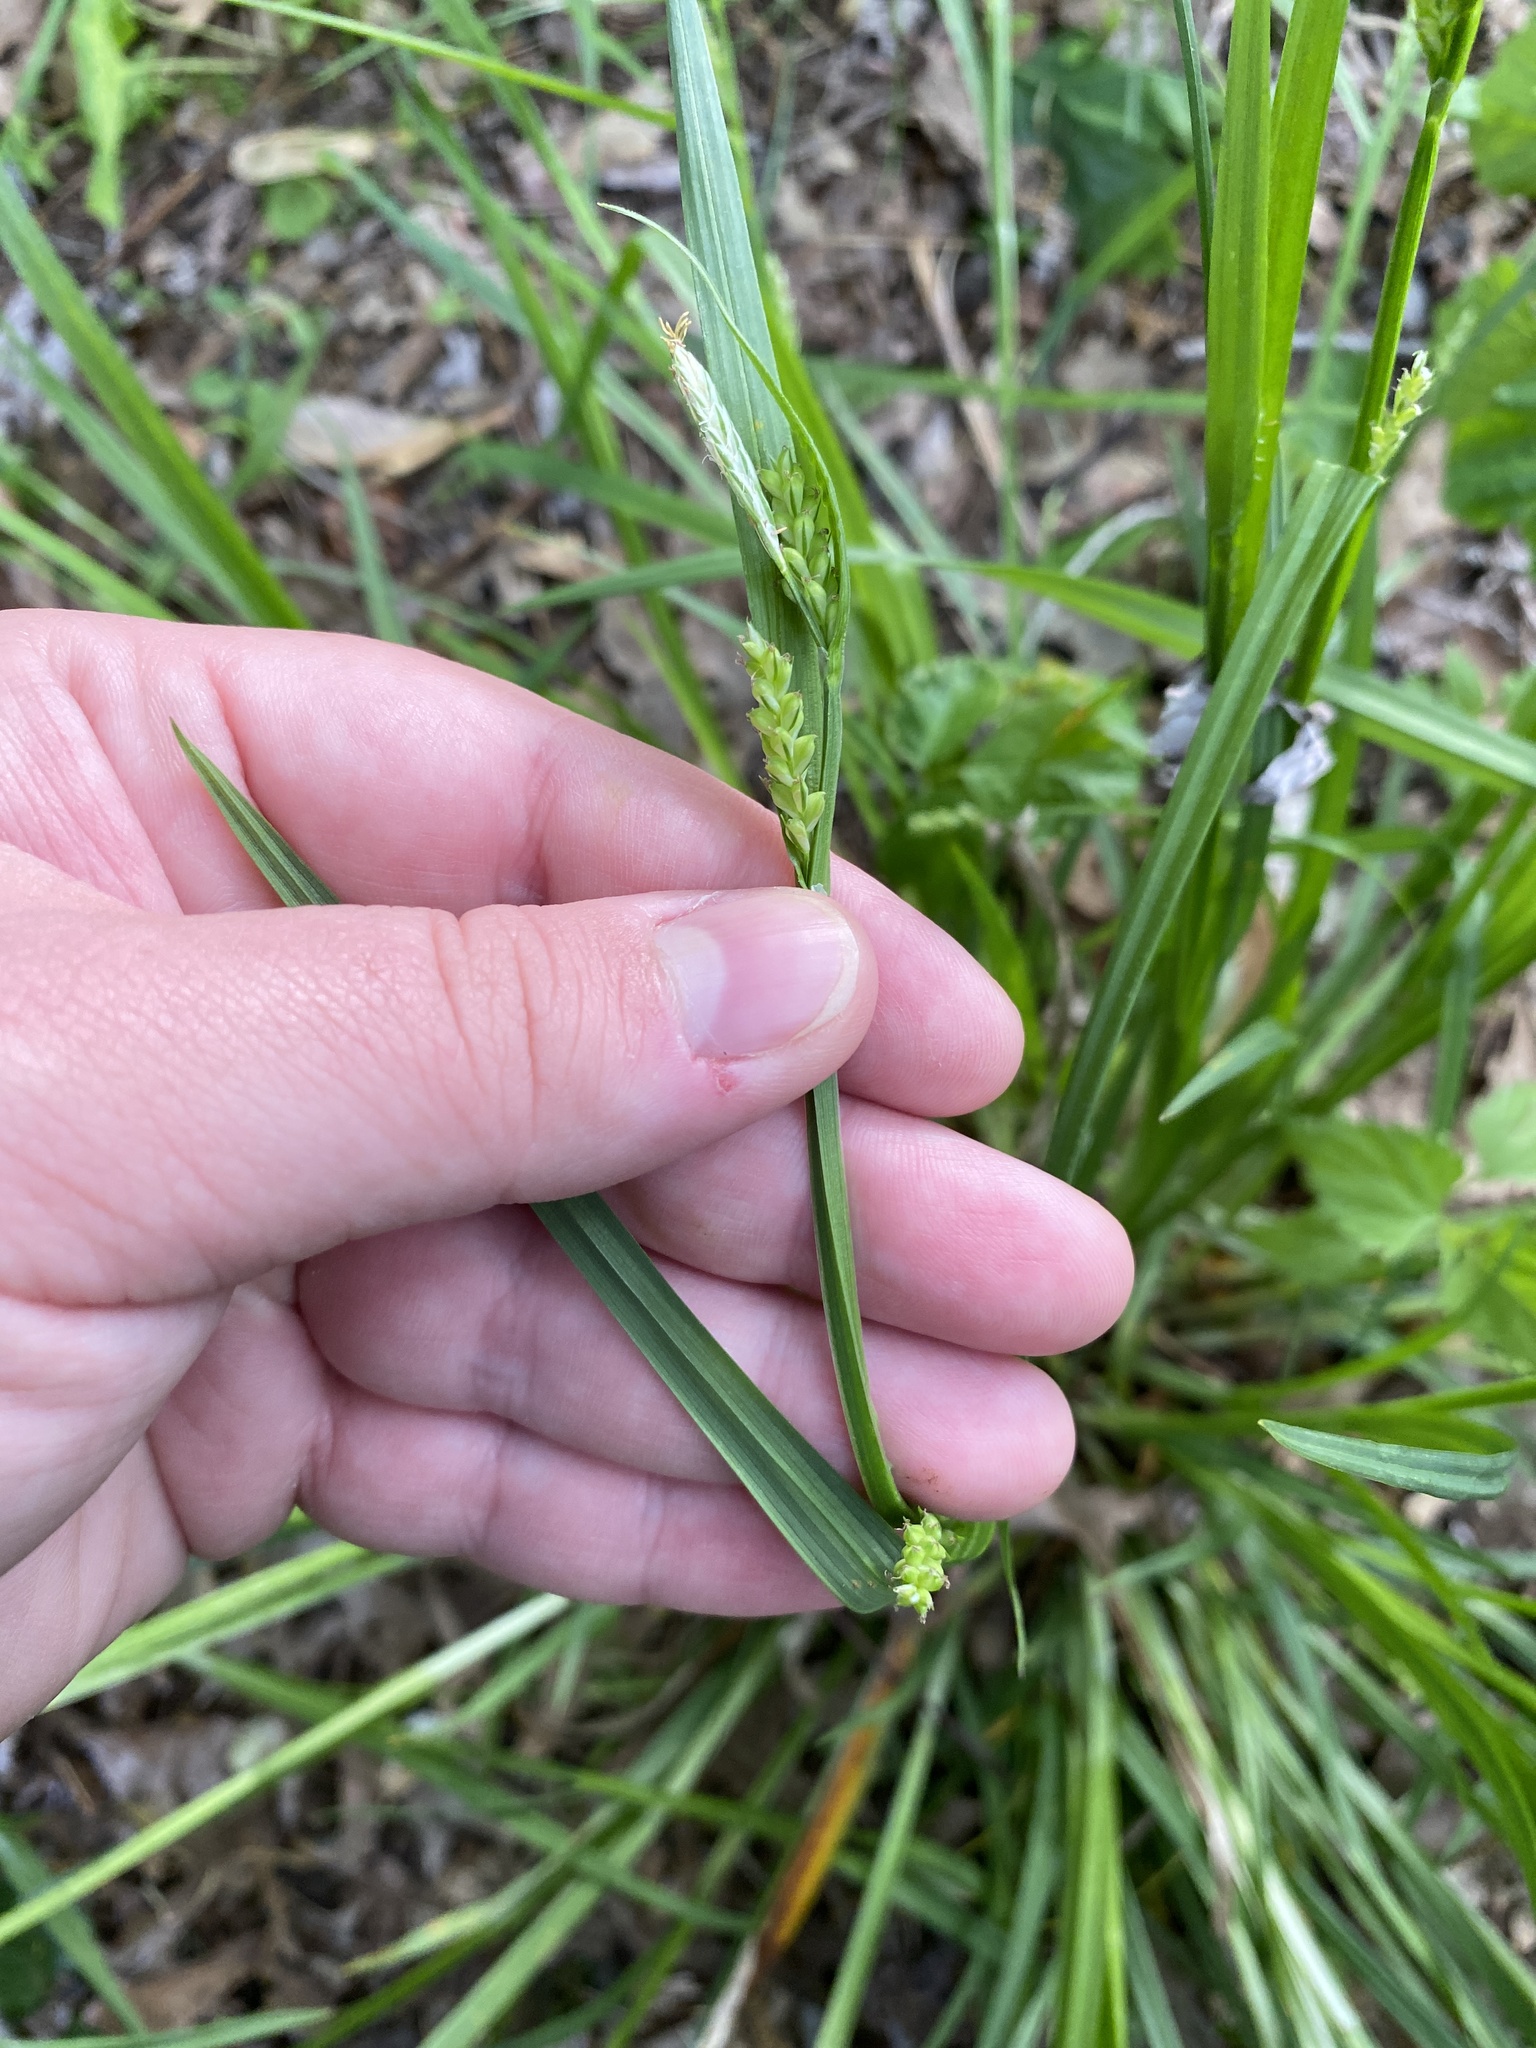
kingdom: Plantae
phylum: Tracheophyta
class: Liliopsida
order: Poales
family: Cyperaceae
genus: Carex
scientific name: Carex blanda
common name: Bland sedge
